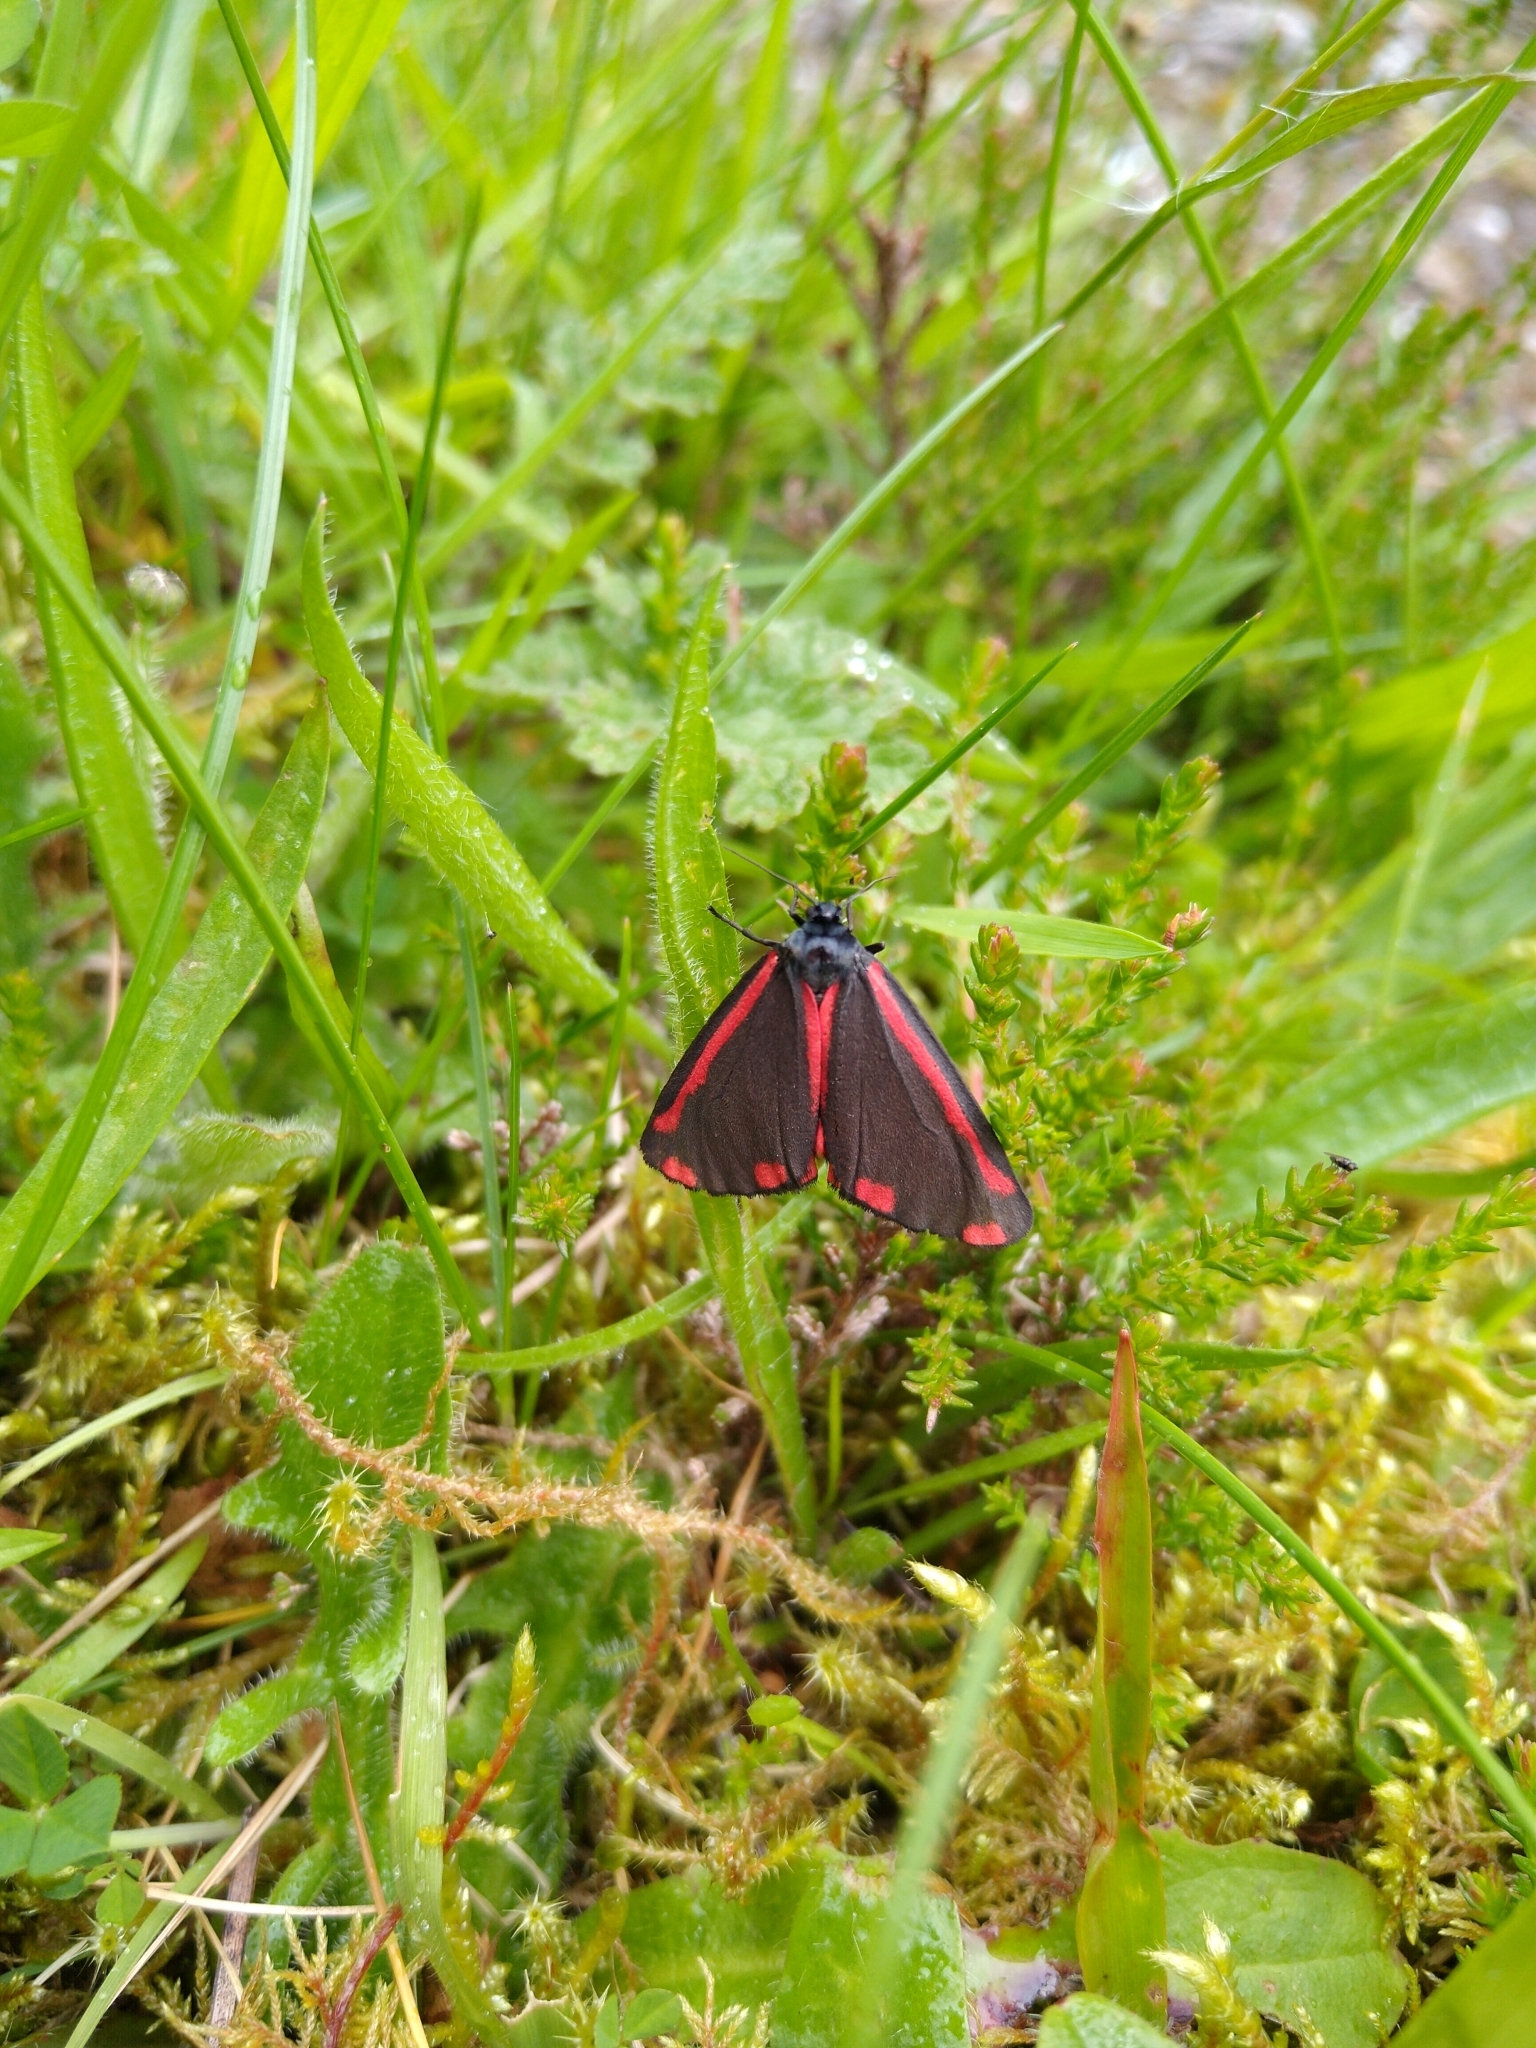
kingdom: Animalia
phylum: Arthropoda
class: Insecta
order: Lepidoptera
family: Erebidae
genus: Tyria
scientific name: Tyria jacobaeae
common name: Cinnabar
